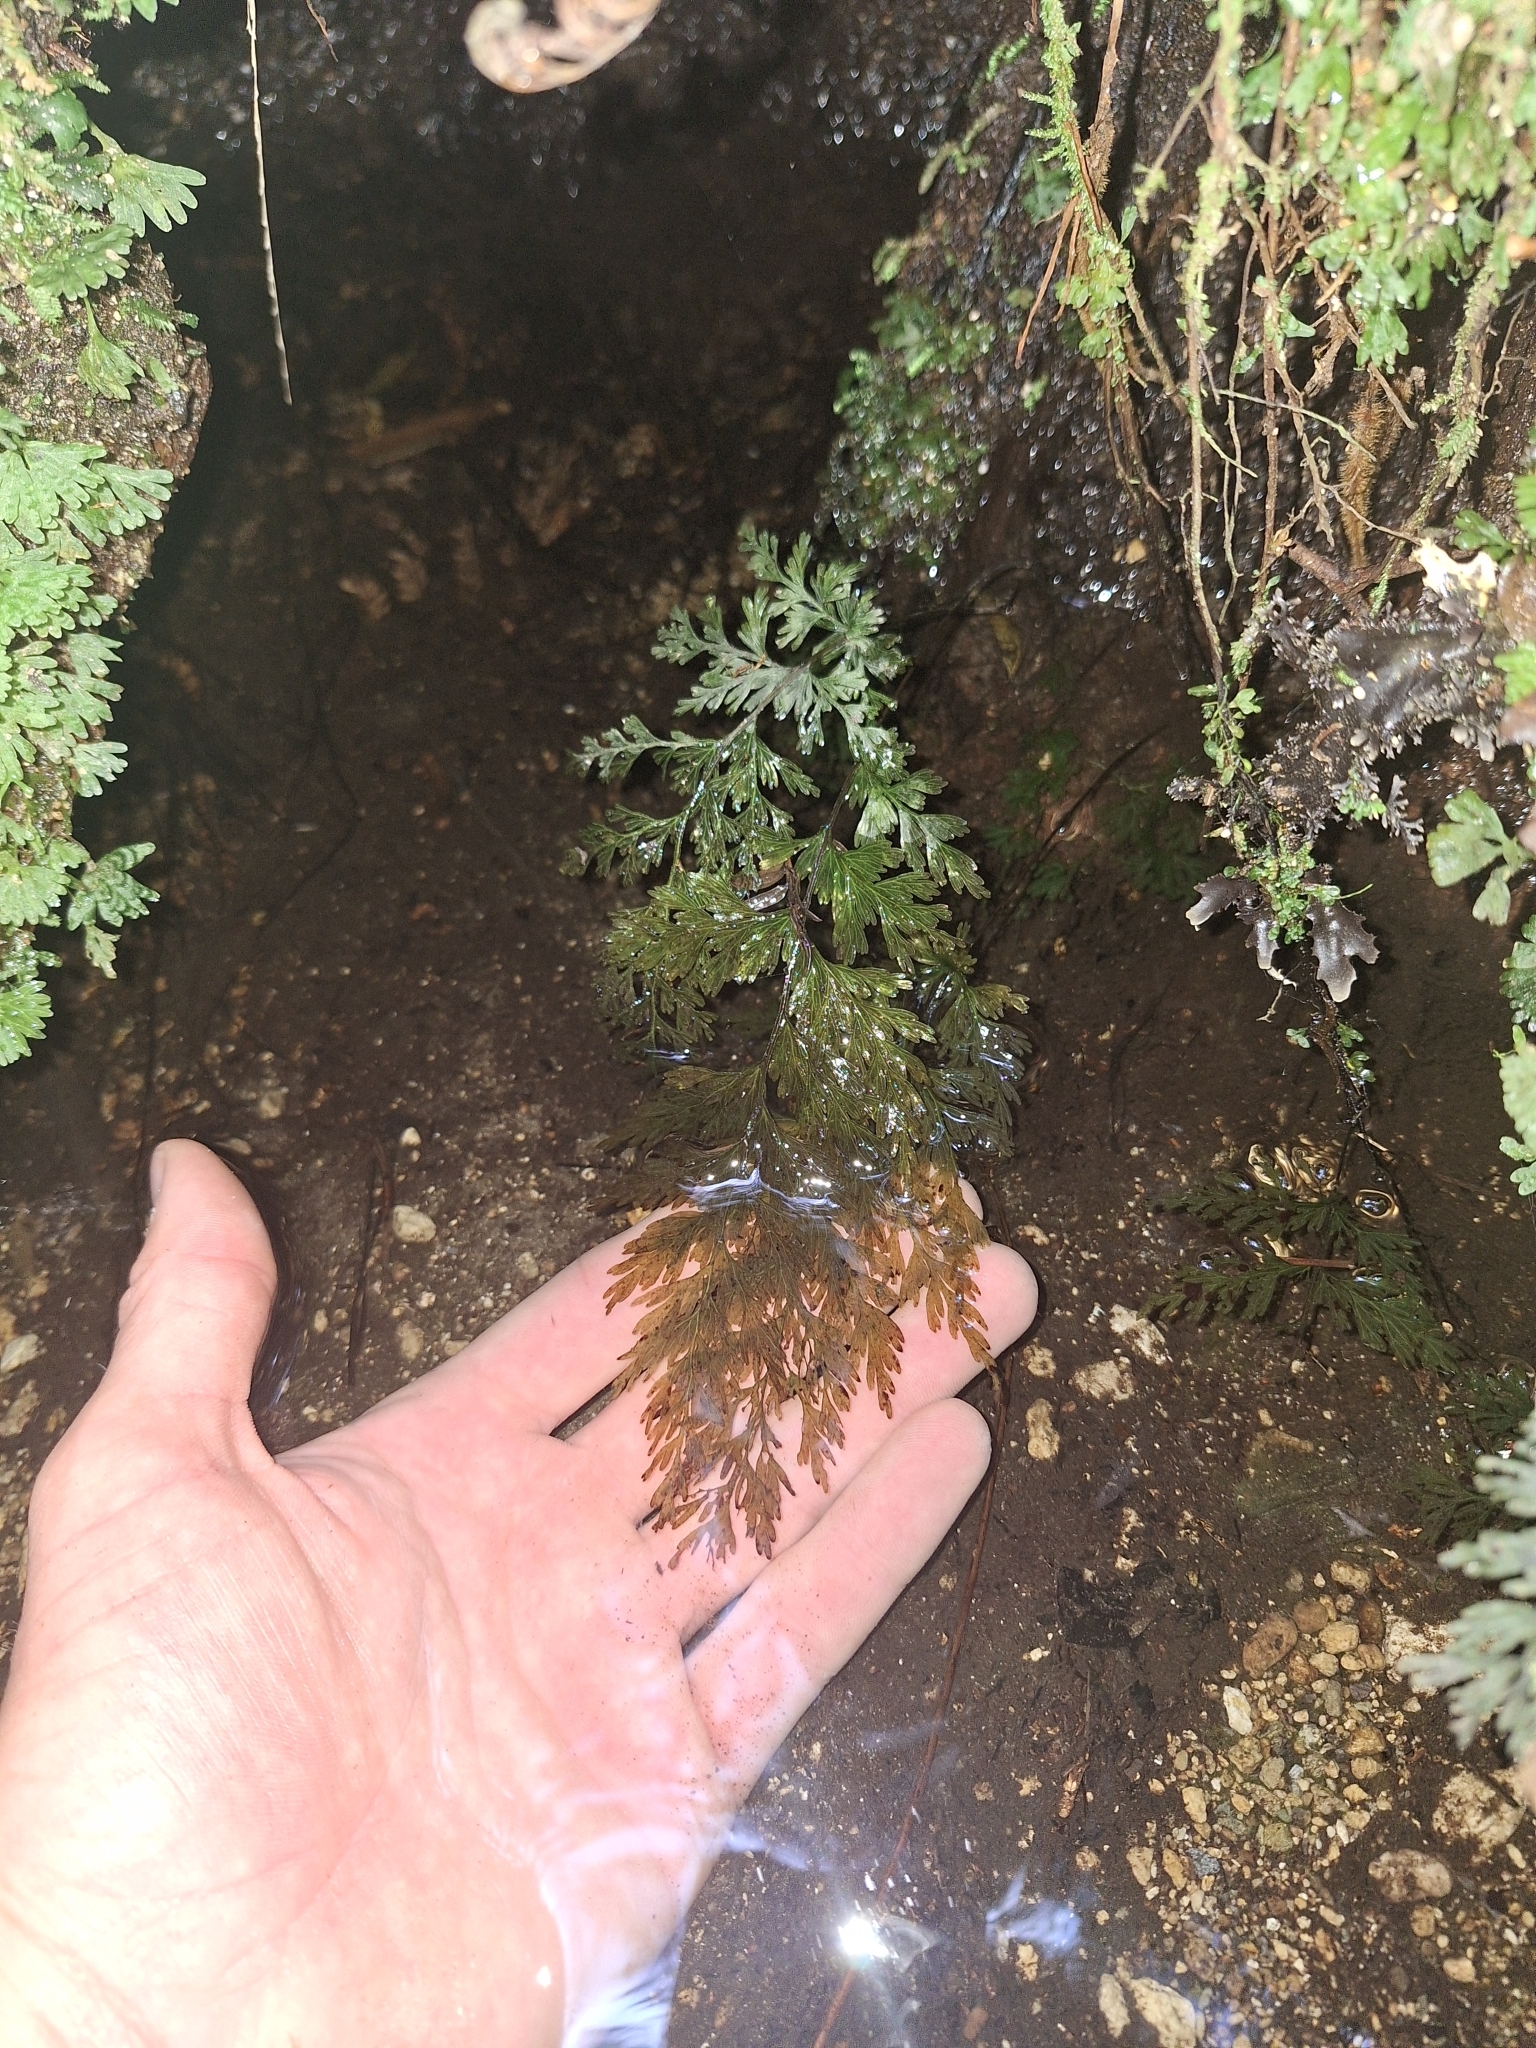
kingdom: Plantae
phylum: Tracheophyta
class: Polypodiopsida
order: Hymenophyllales
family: Hymenophyllaceae
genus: Hymenophyllum
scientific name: Hymenophyllum demissum
